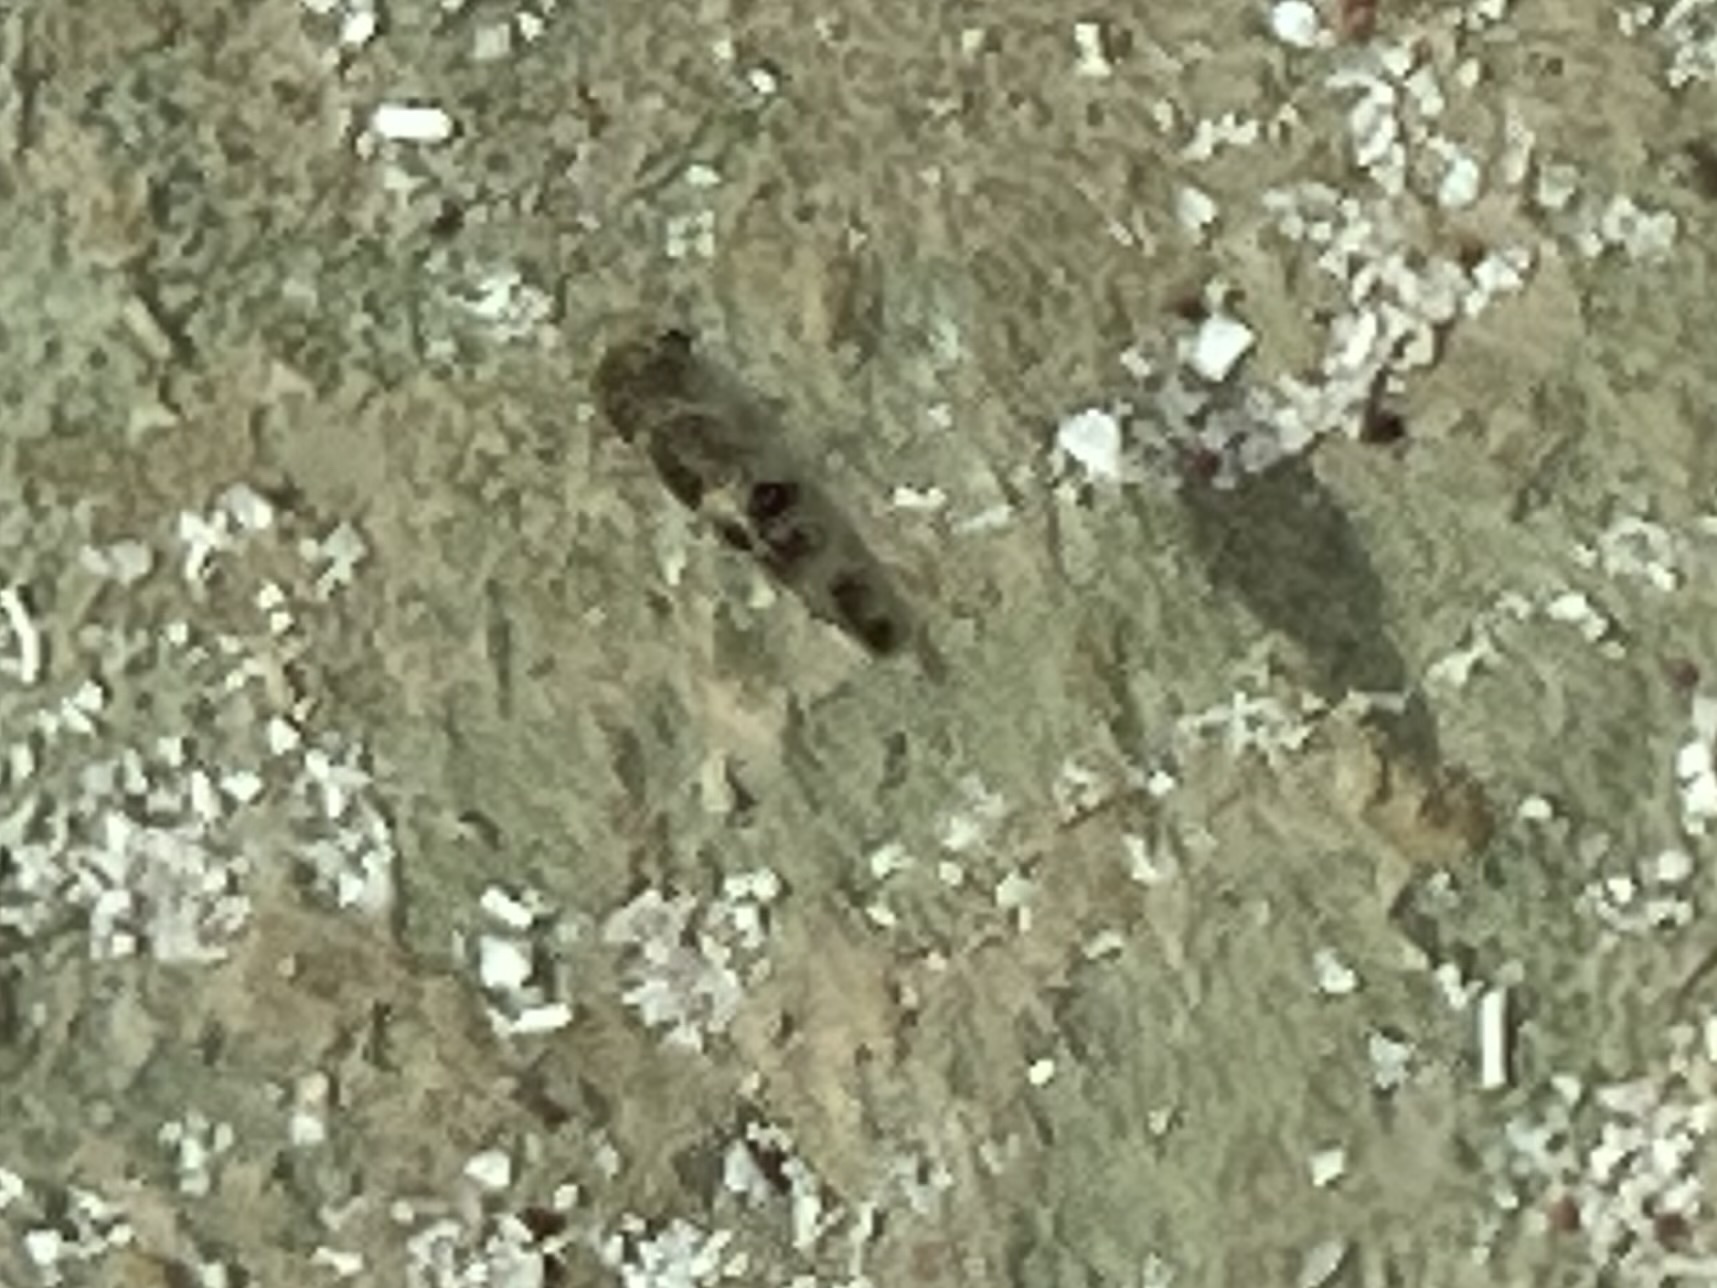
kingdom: Animalia
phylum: Chordata
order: Perciformes
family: Pomacentridae
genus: Abudefduf
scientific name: Abudefduf taurus
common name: Night sergeant
